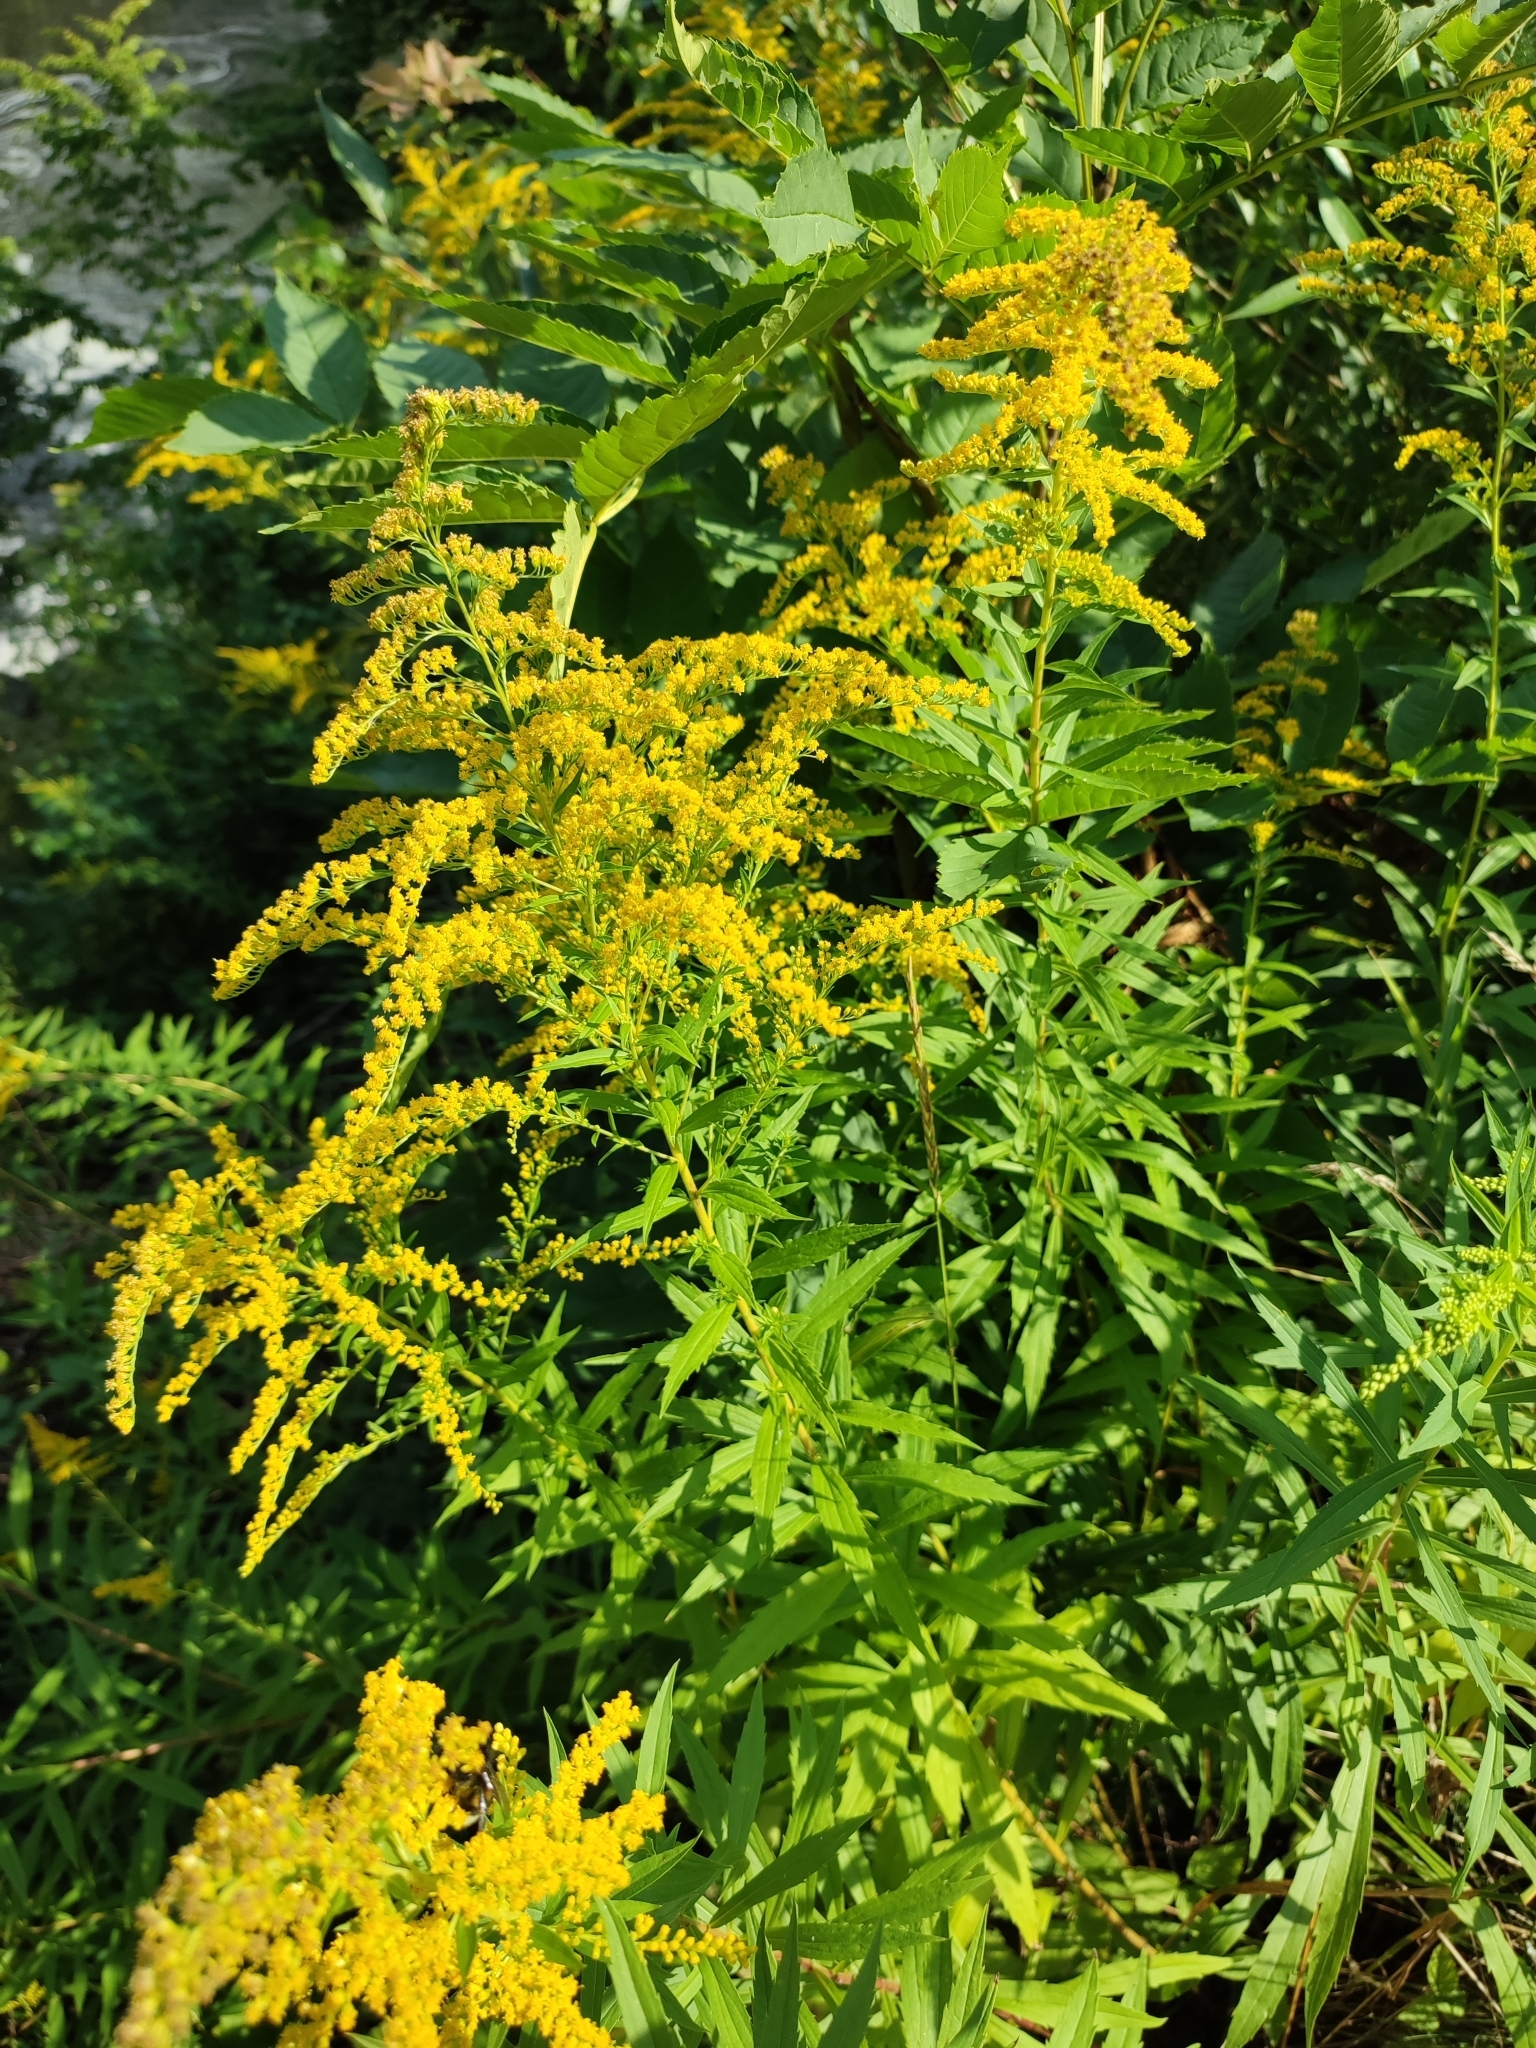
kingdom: Plantae
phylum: Tracheophyta
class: Magnoliopsida
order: Asterales
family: Asteraceae
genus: Solidago
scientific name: Solidago canadensis
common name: Canada goldenrod
